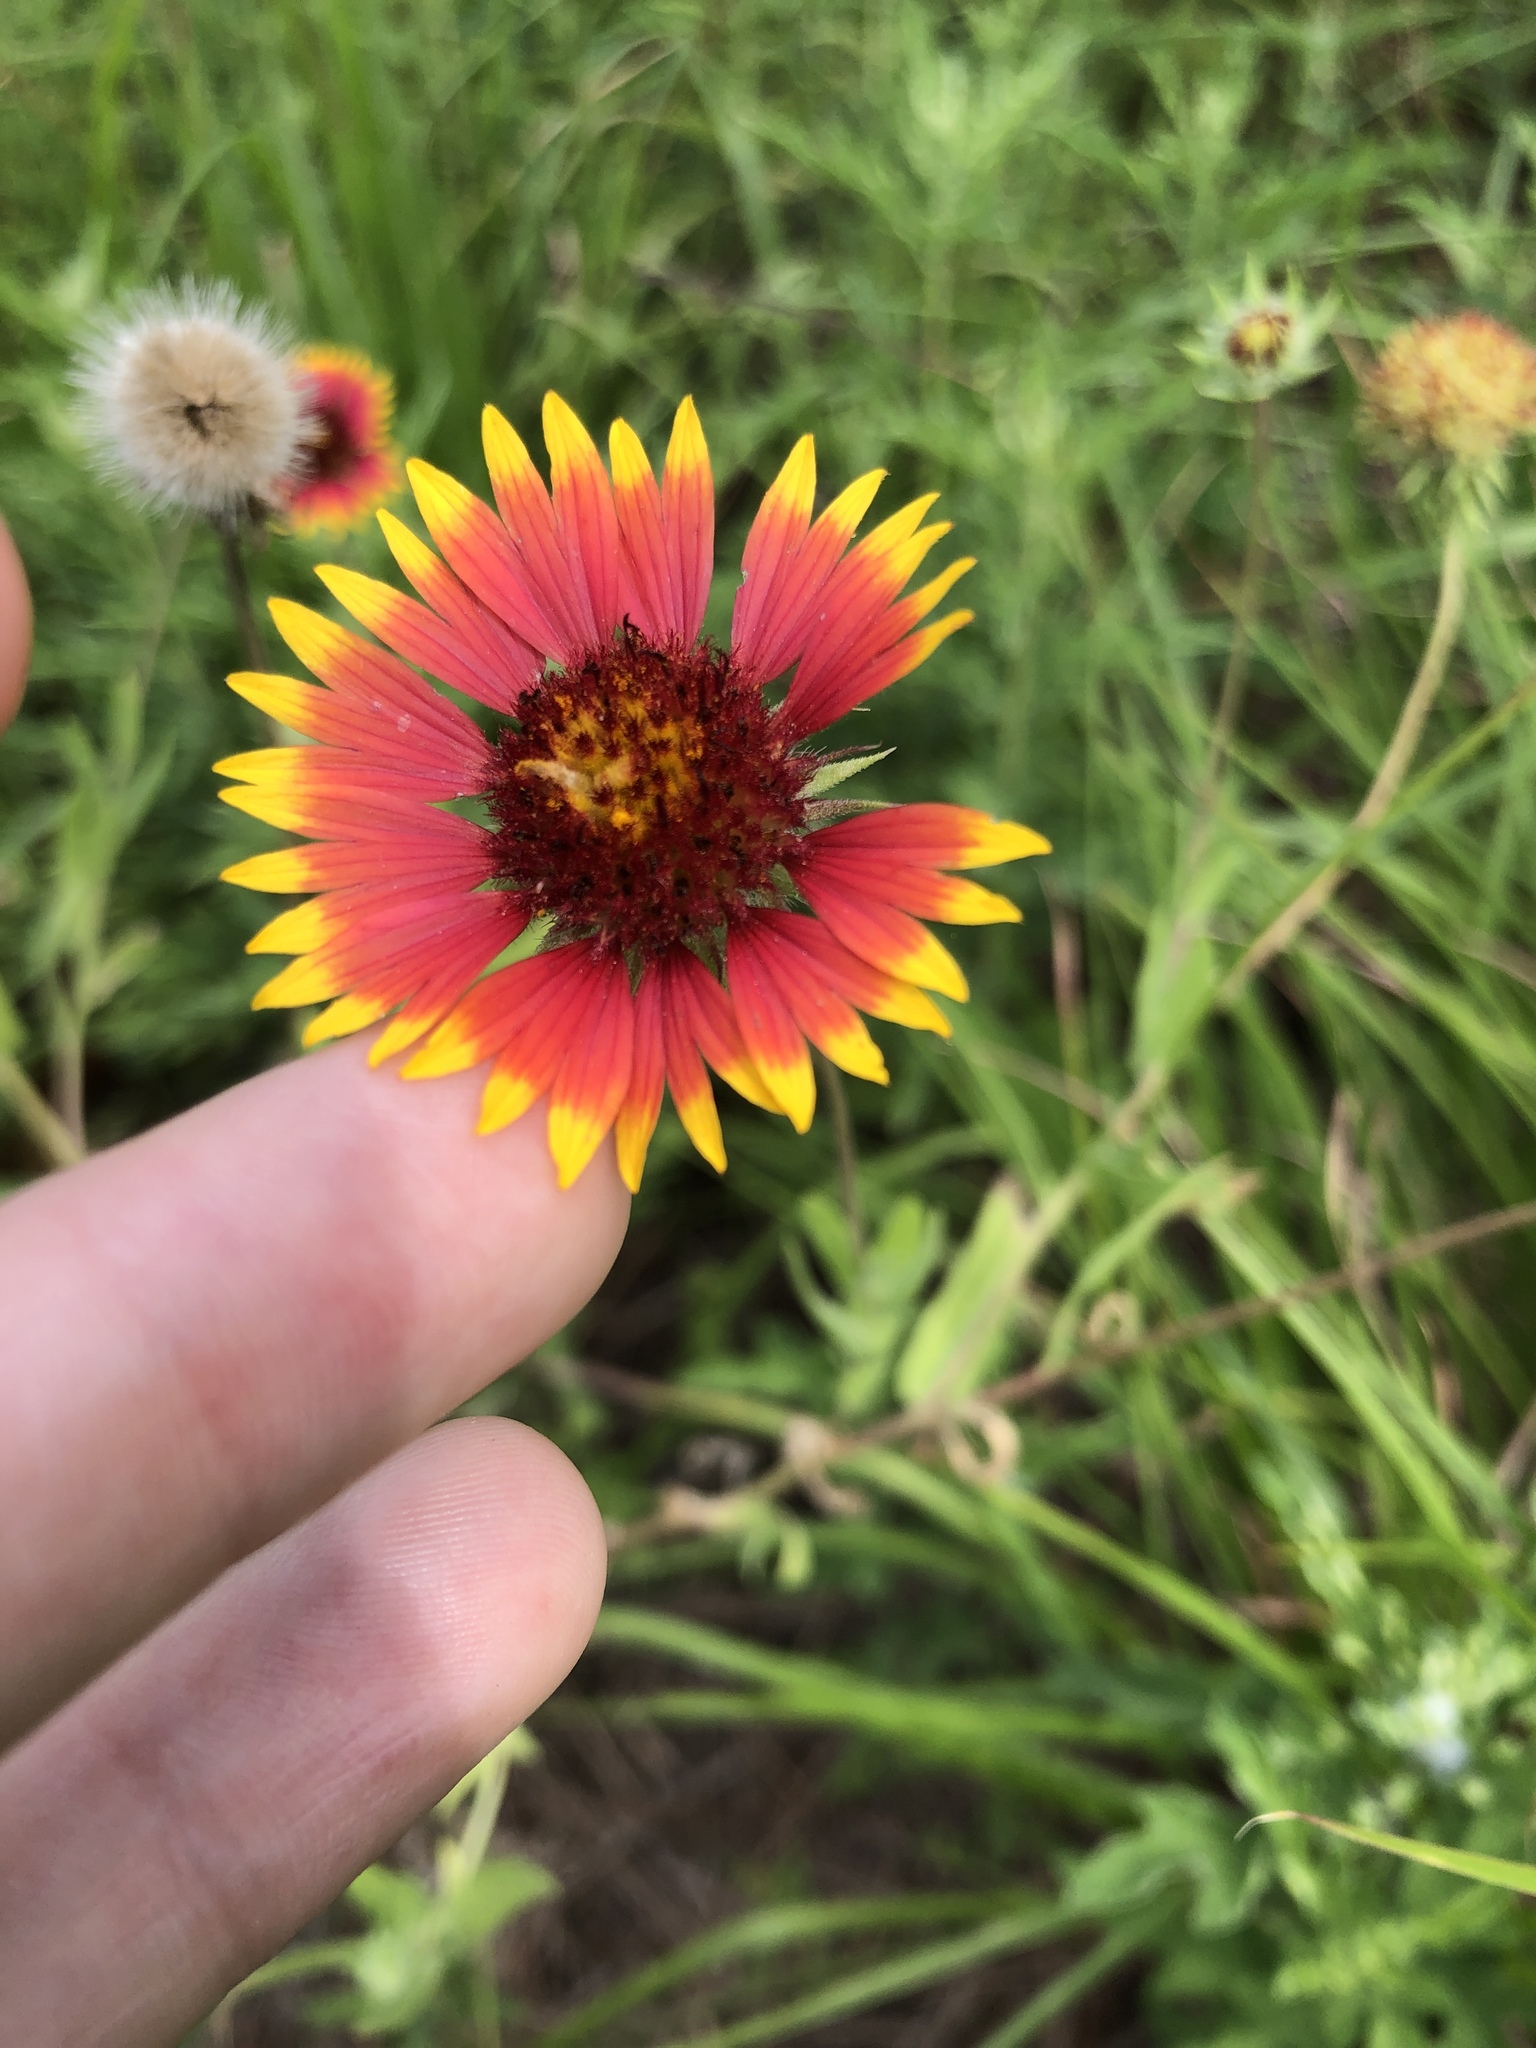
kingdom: Plantae
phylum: Tracheophyta
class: Magnoliopsida
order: Asterales
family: Asteraceae
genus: Gaillardia
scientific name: Gaillardia pulchella
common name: Firewheel
